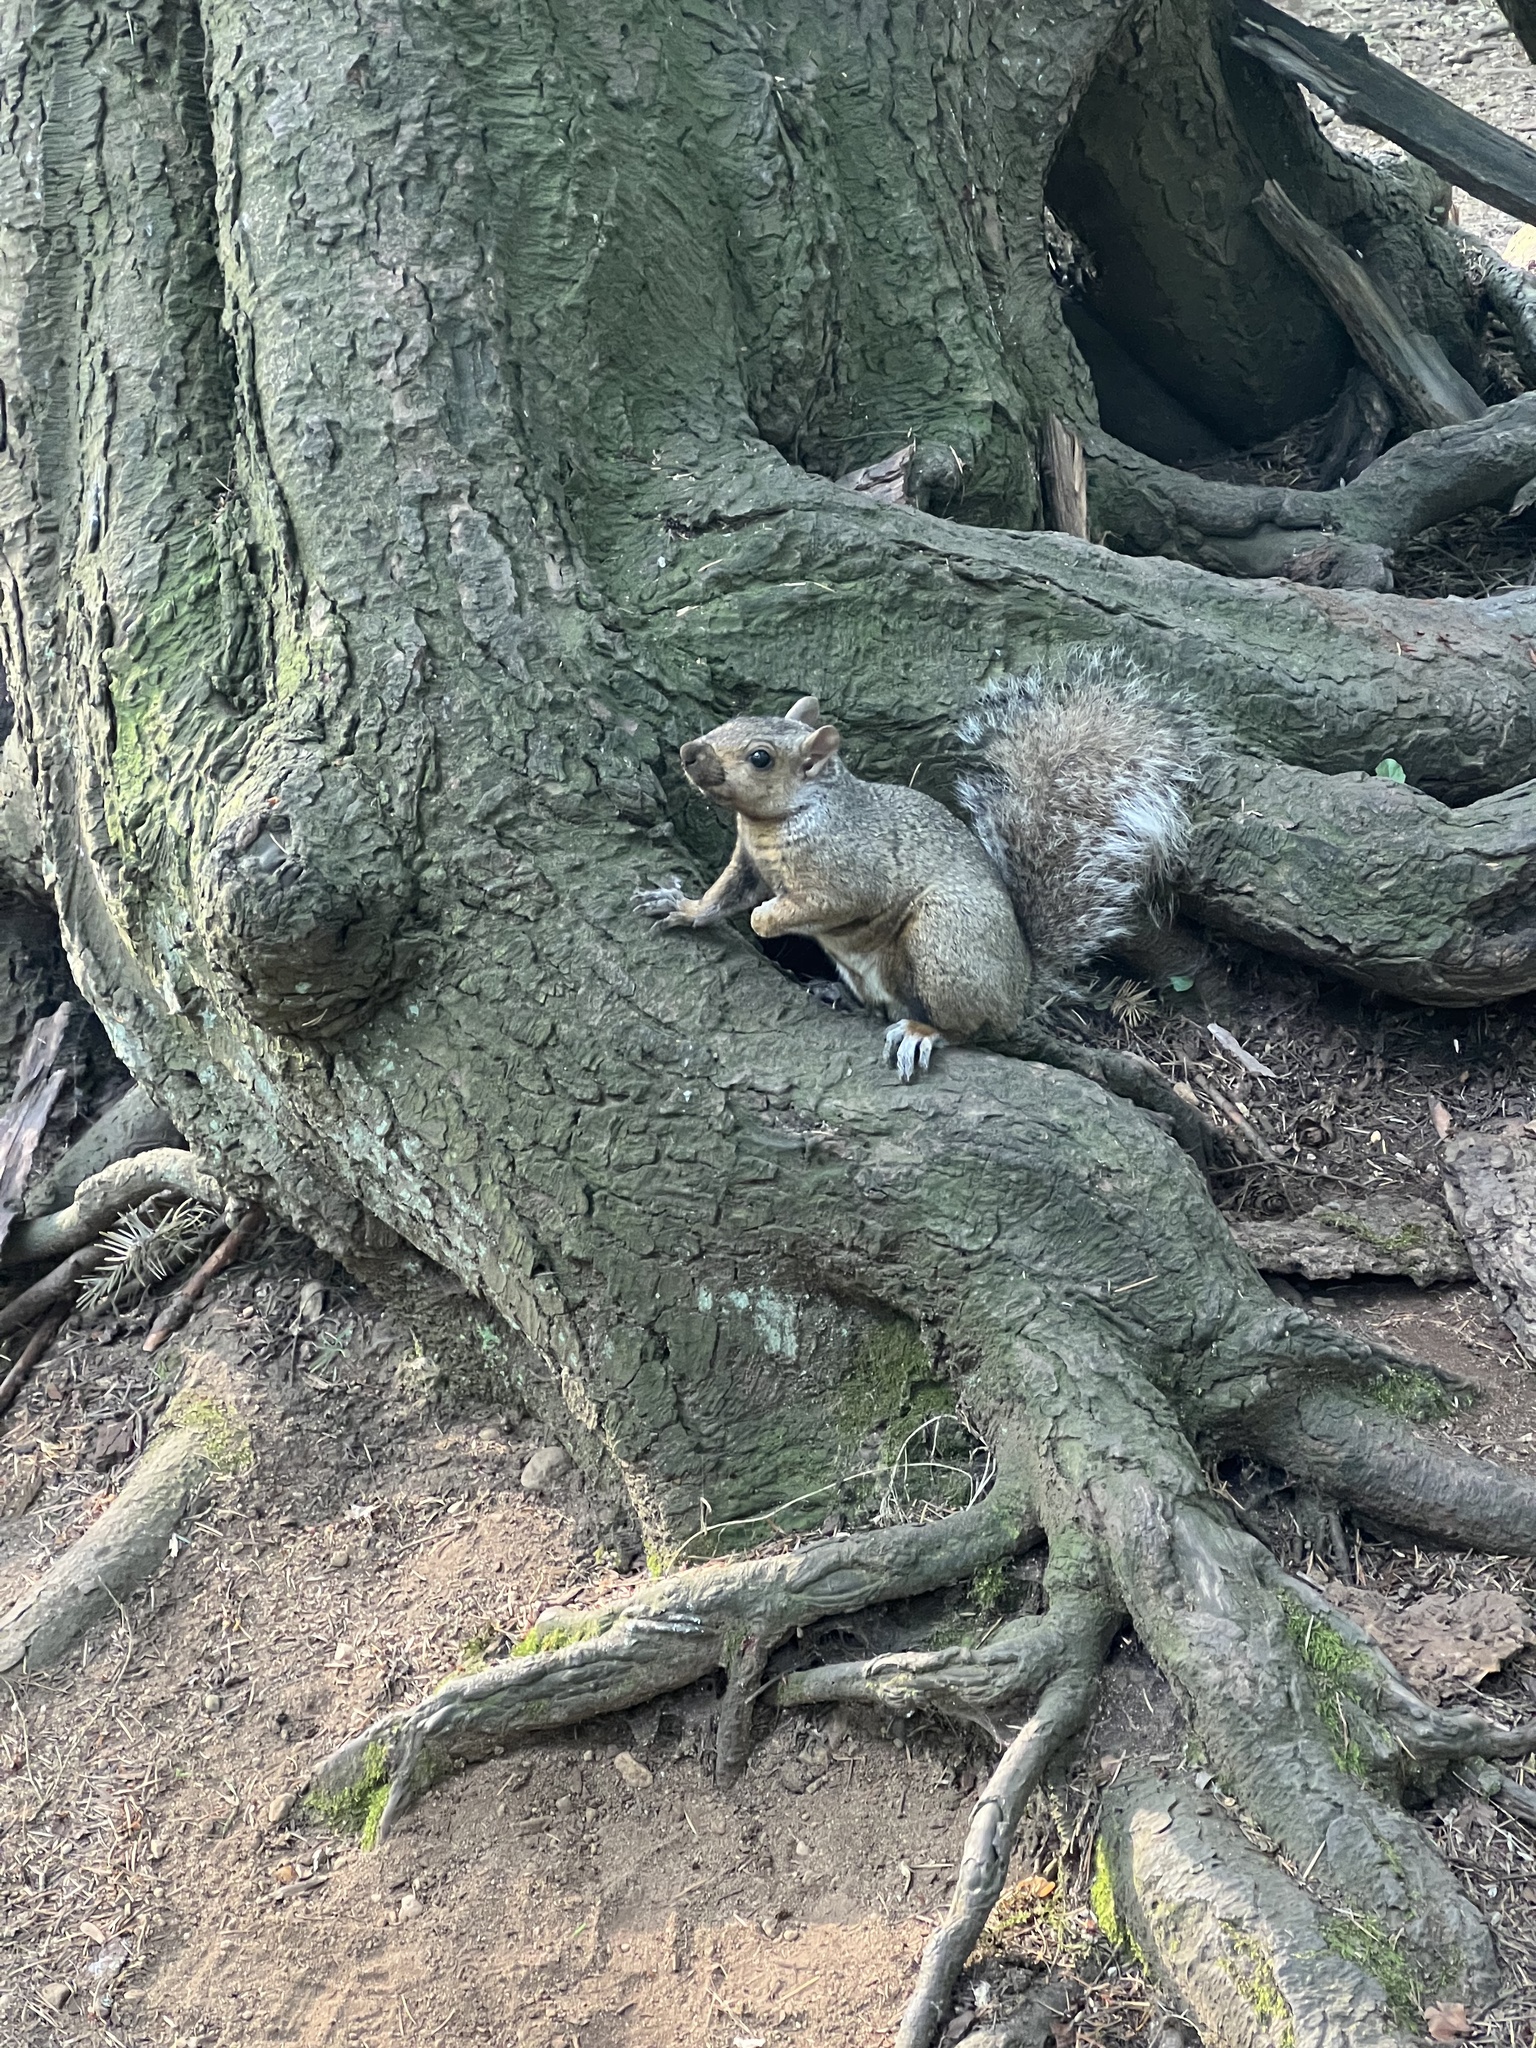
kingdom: Animalia
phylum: Chordata
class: Mammalia
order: Rodentia
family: Sciuridae
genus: Sciurus
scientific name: Sciurus carolinensis
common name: Eastern gray squirrel
